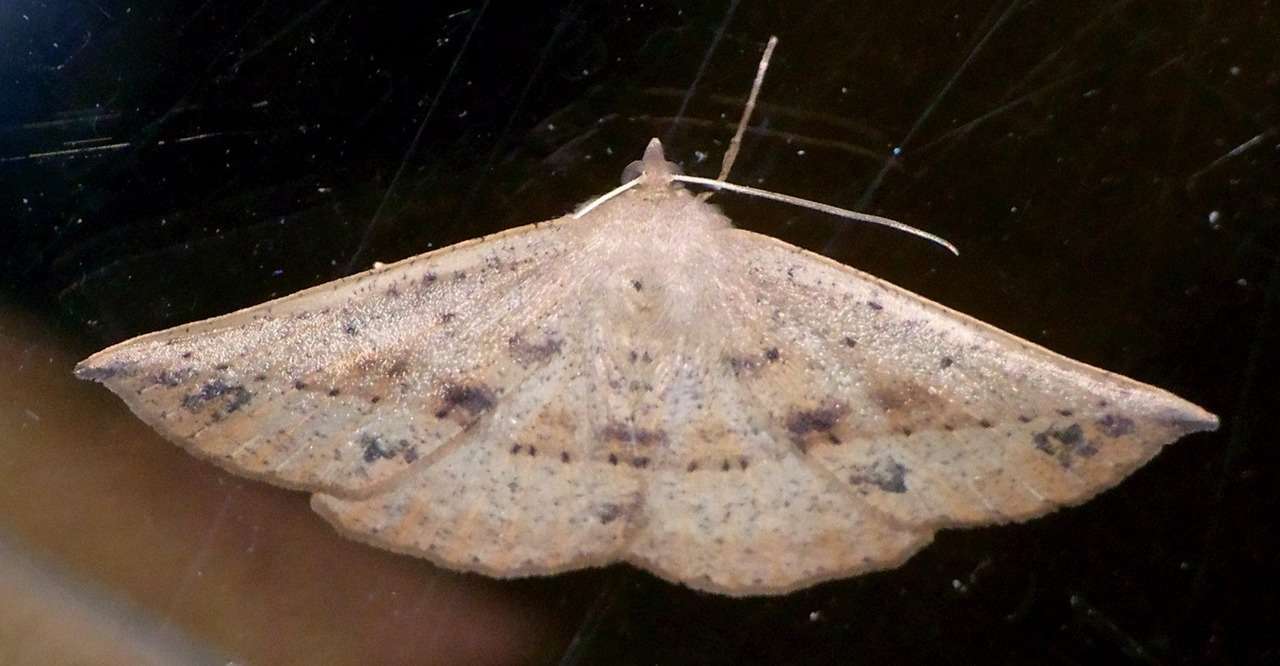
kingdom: Animalia
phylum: Arthropoda
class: Insecta
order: Lepidoptera
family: Geometridae
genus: Idiodes
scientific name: Idiodes apicata
